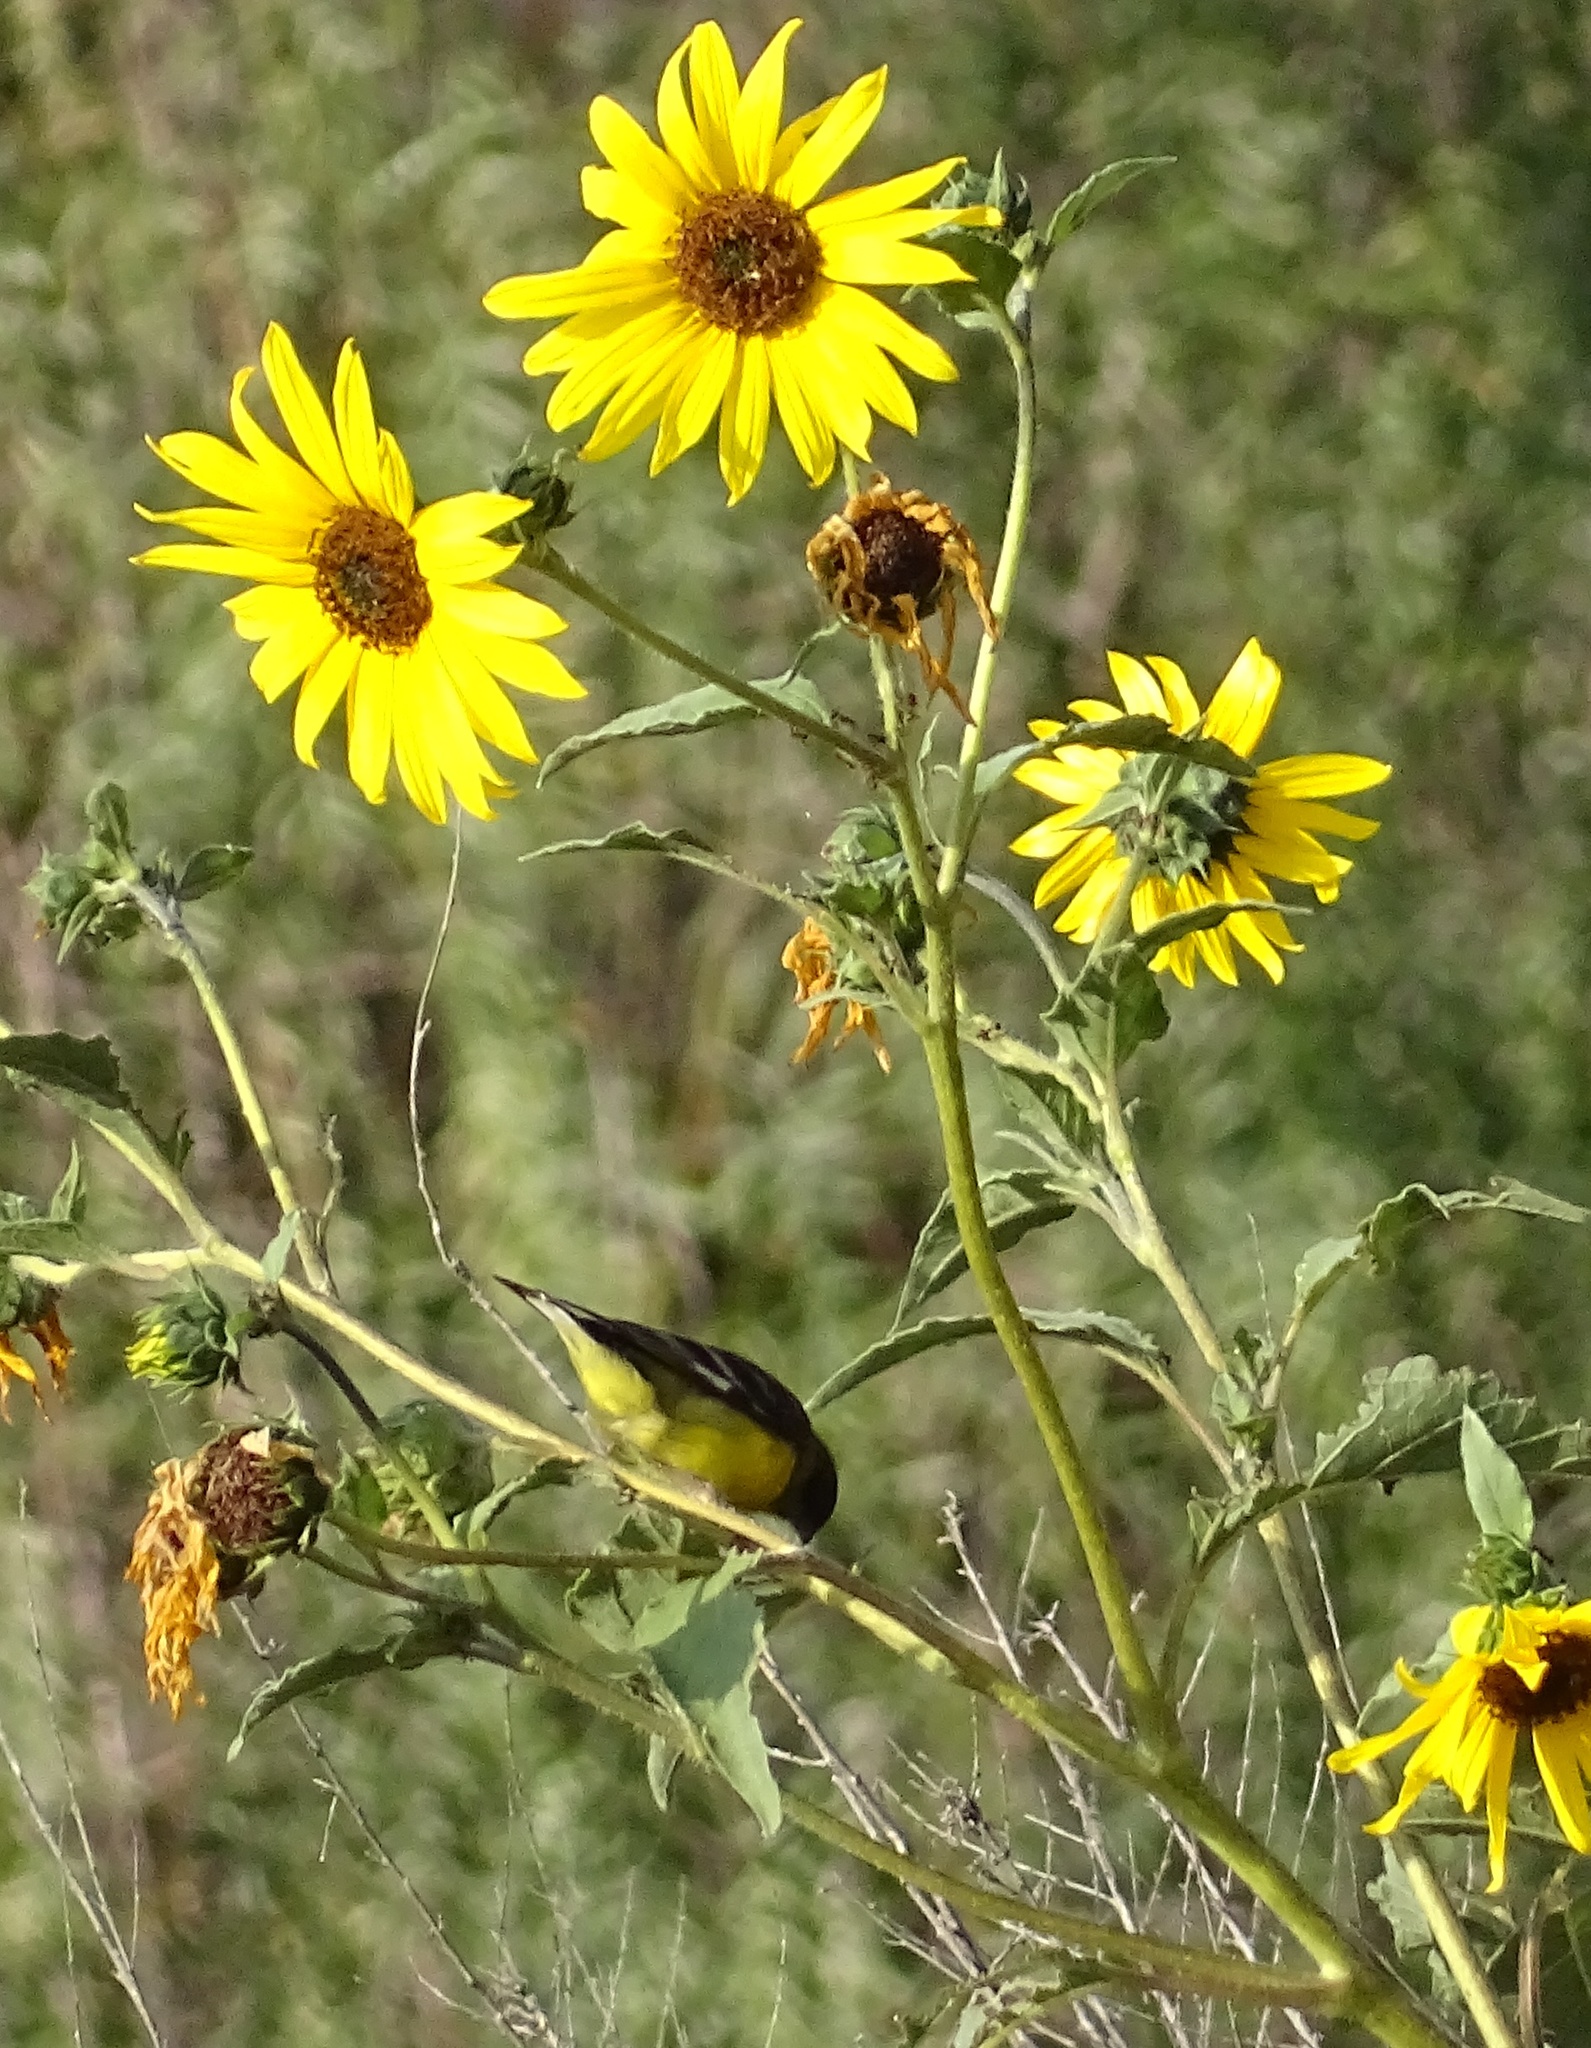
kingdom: Animalia
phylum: Chordata
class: Aves
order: Passeriformes
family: Fringillidae
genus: Spinus
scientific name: Spinus psaltria
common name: Lesser goldfinch
